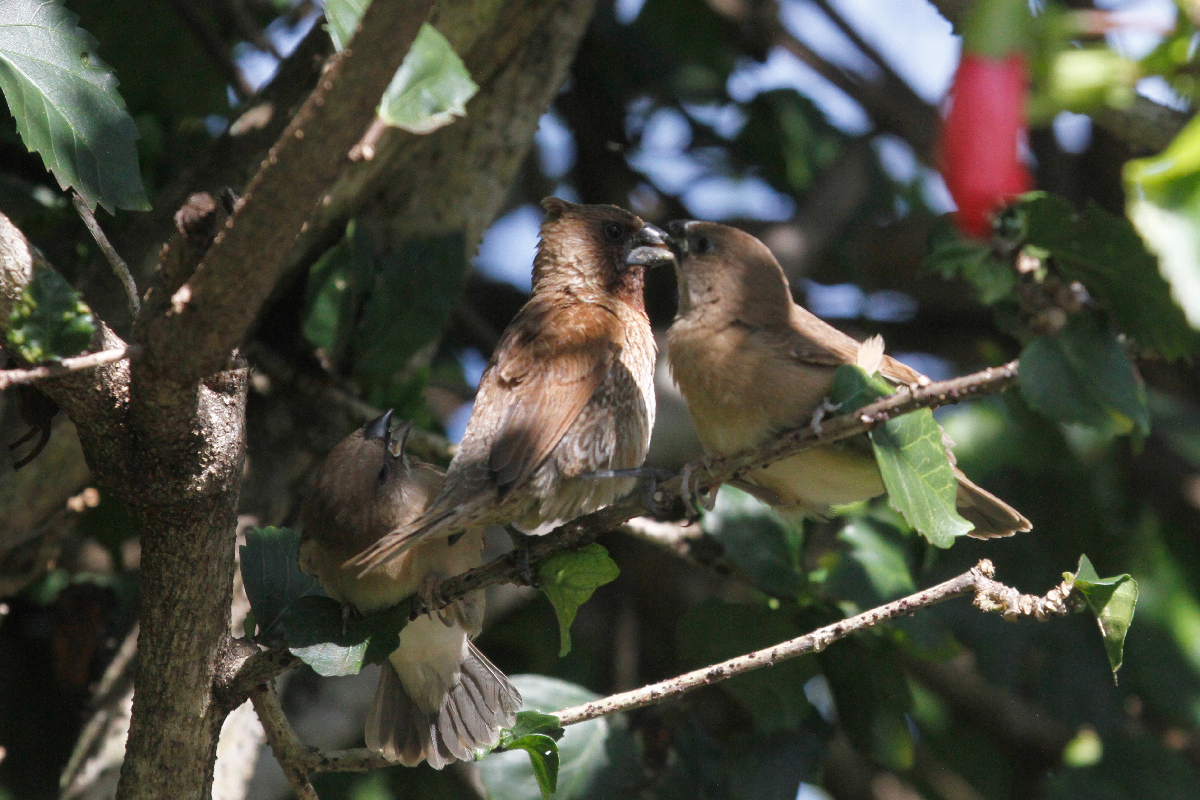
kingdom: Animalia
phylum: Chordata
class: Aves
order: Passeriformes
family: Estrildidae
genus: Lonchura
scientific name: Lonchura punctulata
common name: Scaly-breasted munia
